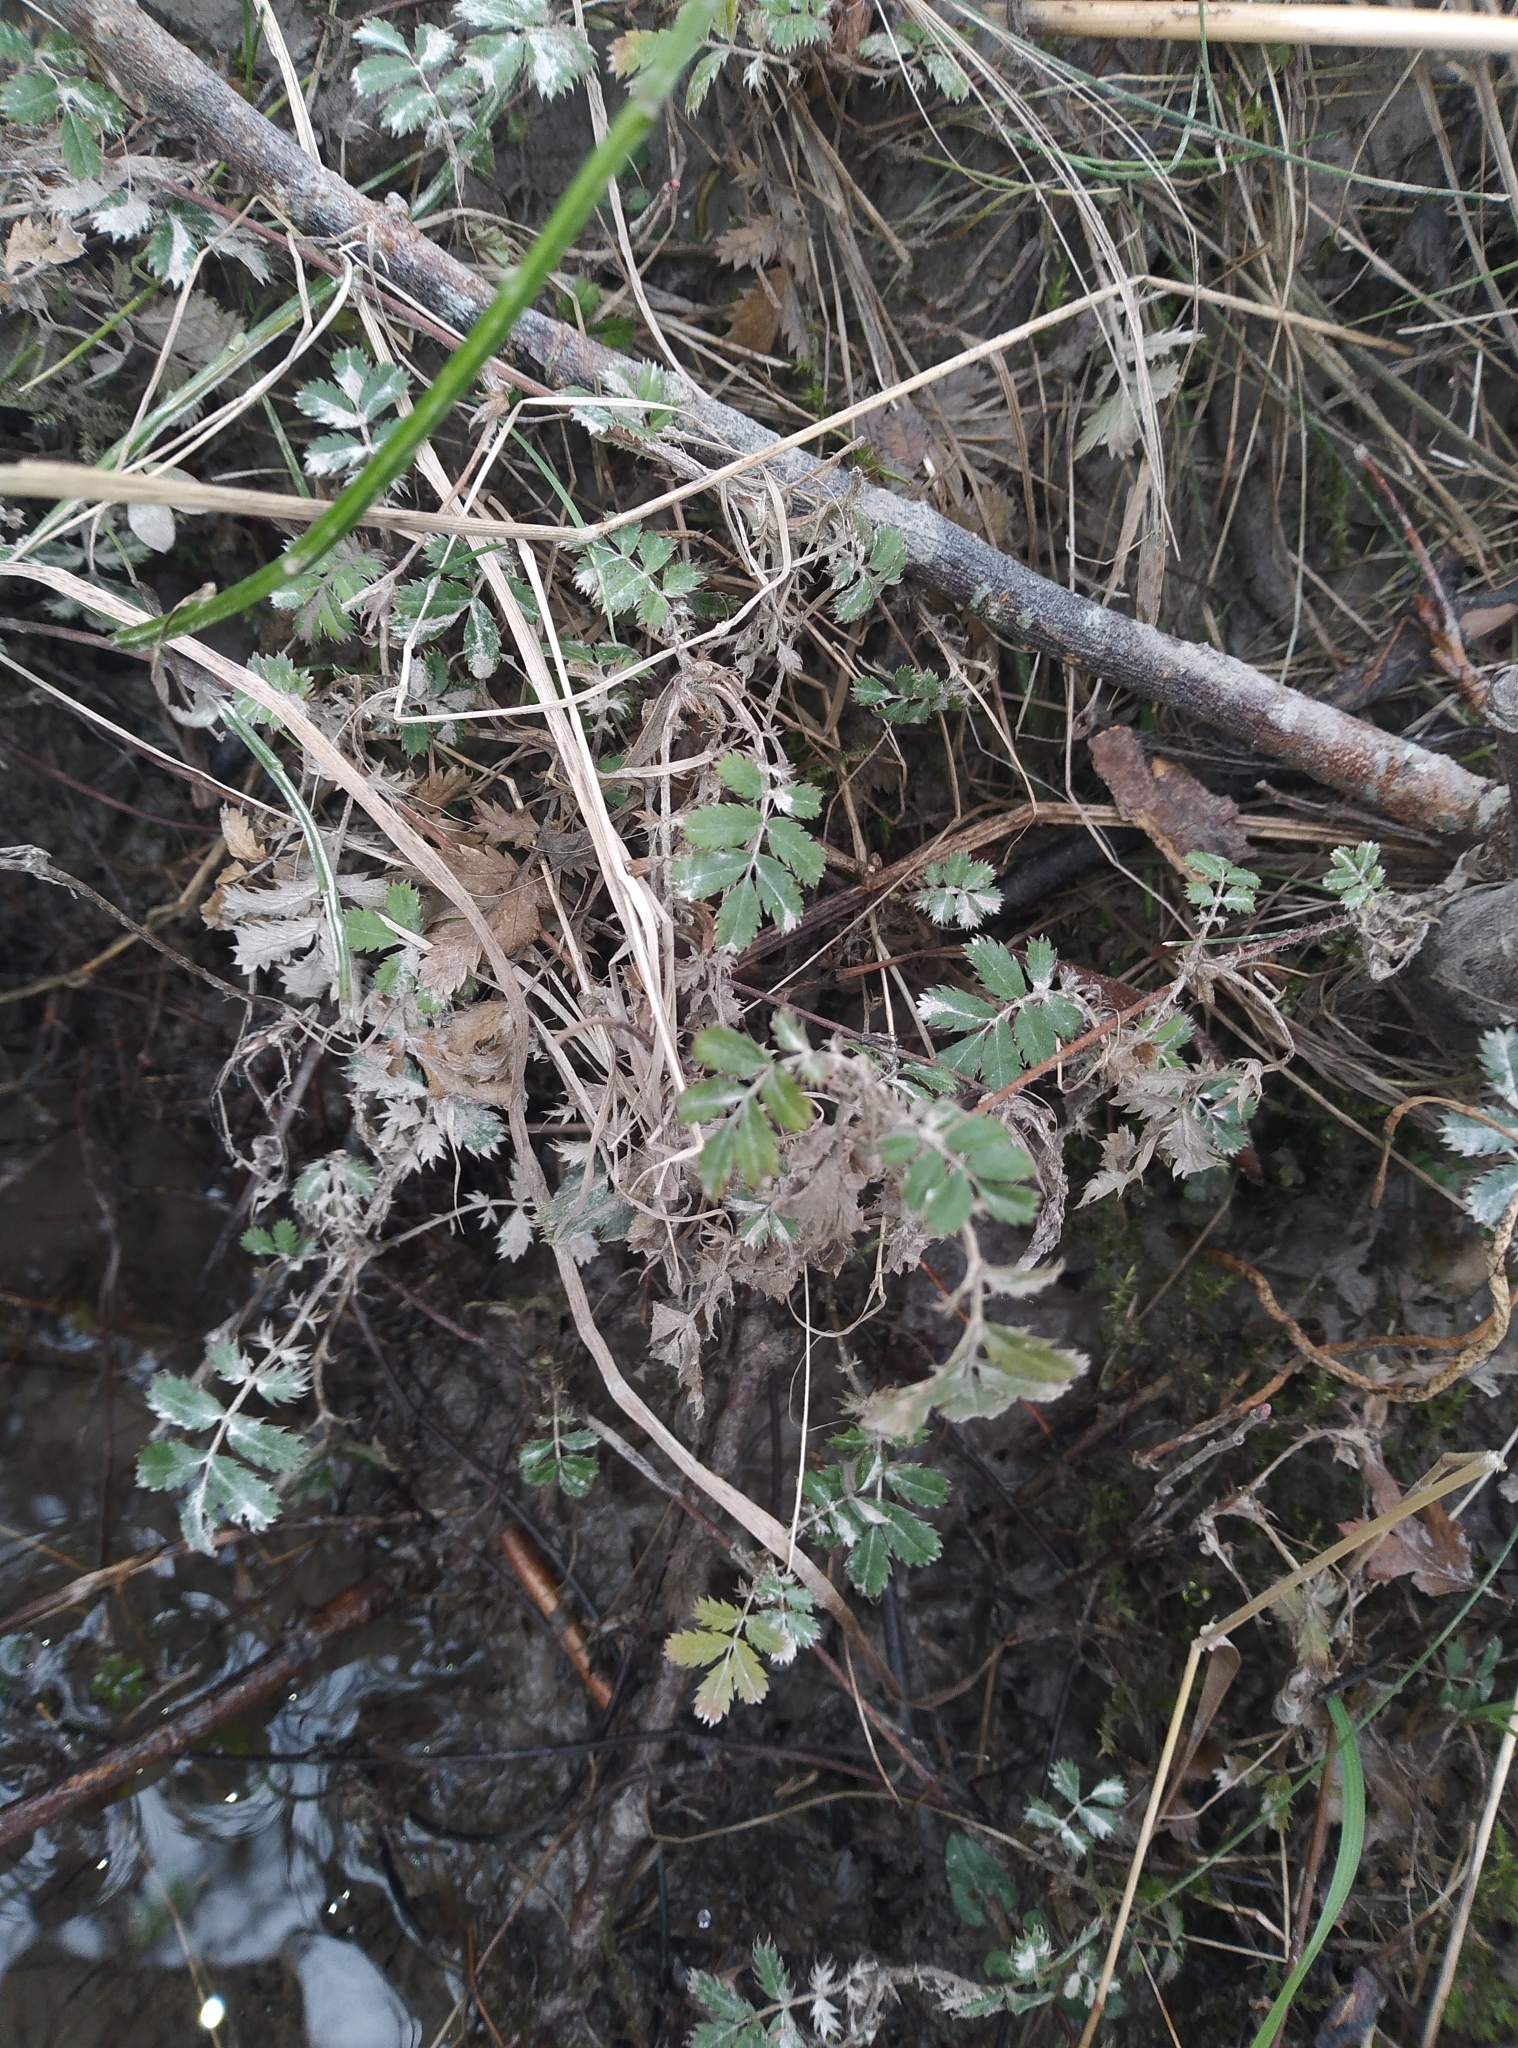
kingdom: Plantae
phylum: Tracheophyta
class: Magnoliopsida
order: Rosales
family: Rosaceae
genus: Acaena
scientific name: Acaena anserinifolia
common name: Bronze pirri-pirri-bur
